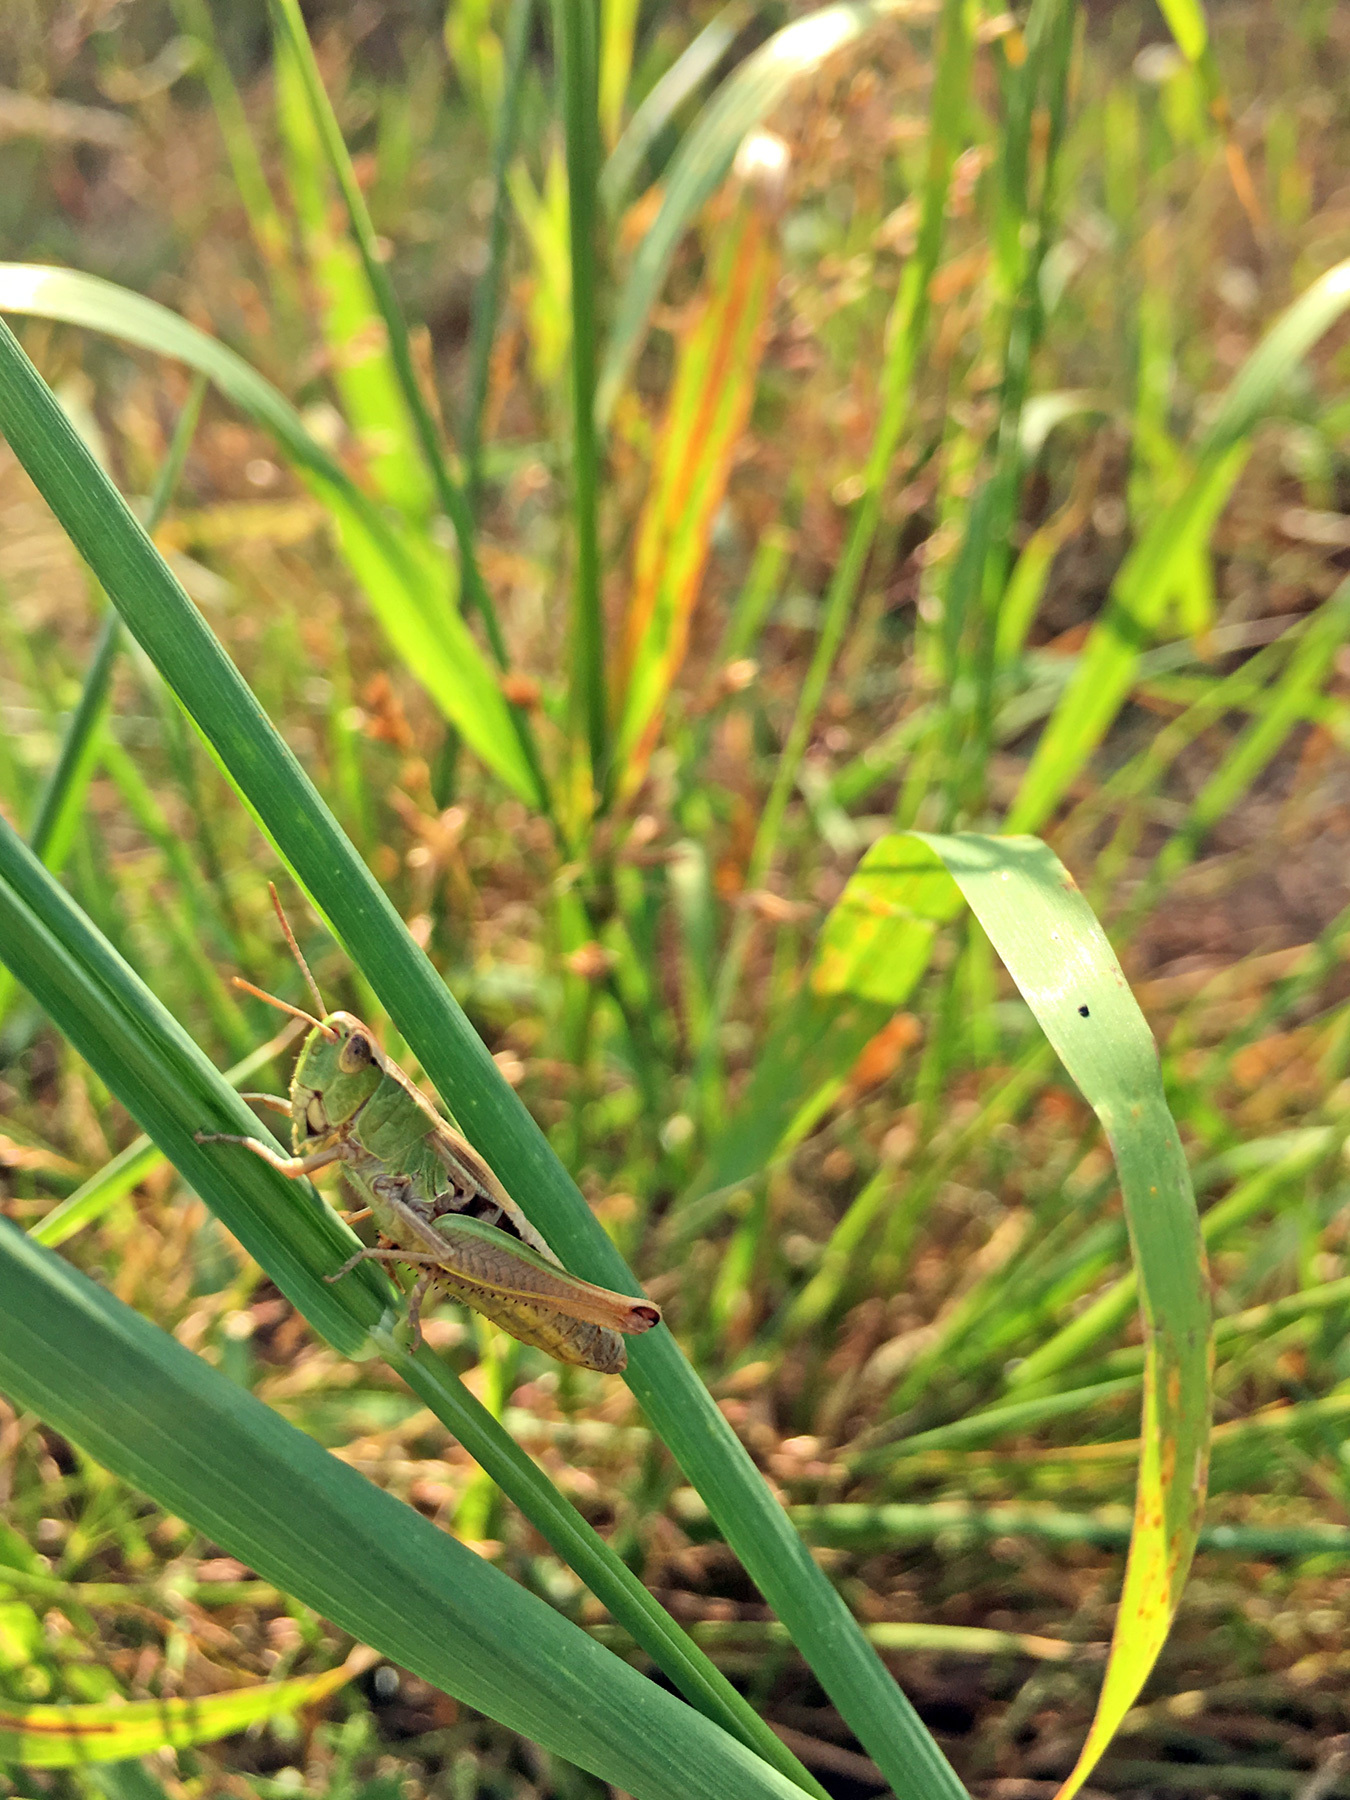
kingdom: Animalia
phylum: Arthropoda
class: Insecta
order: Orthoptera
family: Acrididae
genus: Pseudochorthippus
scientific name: Pseudochorthippus parallelus
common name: Meadow grasshopper
